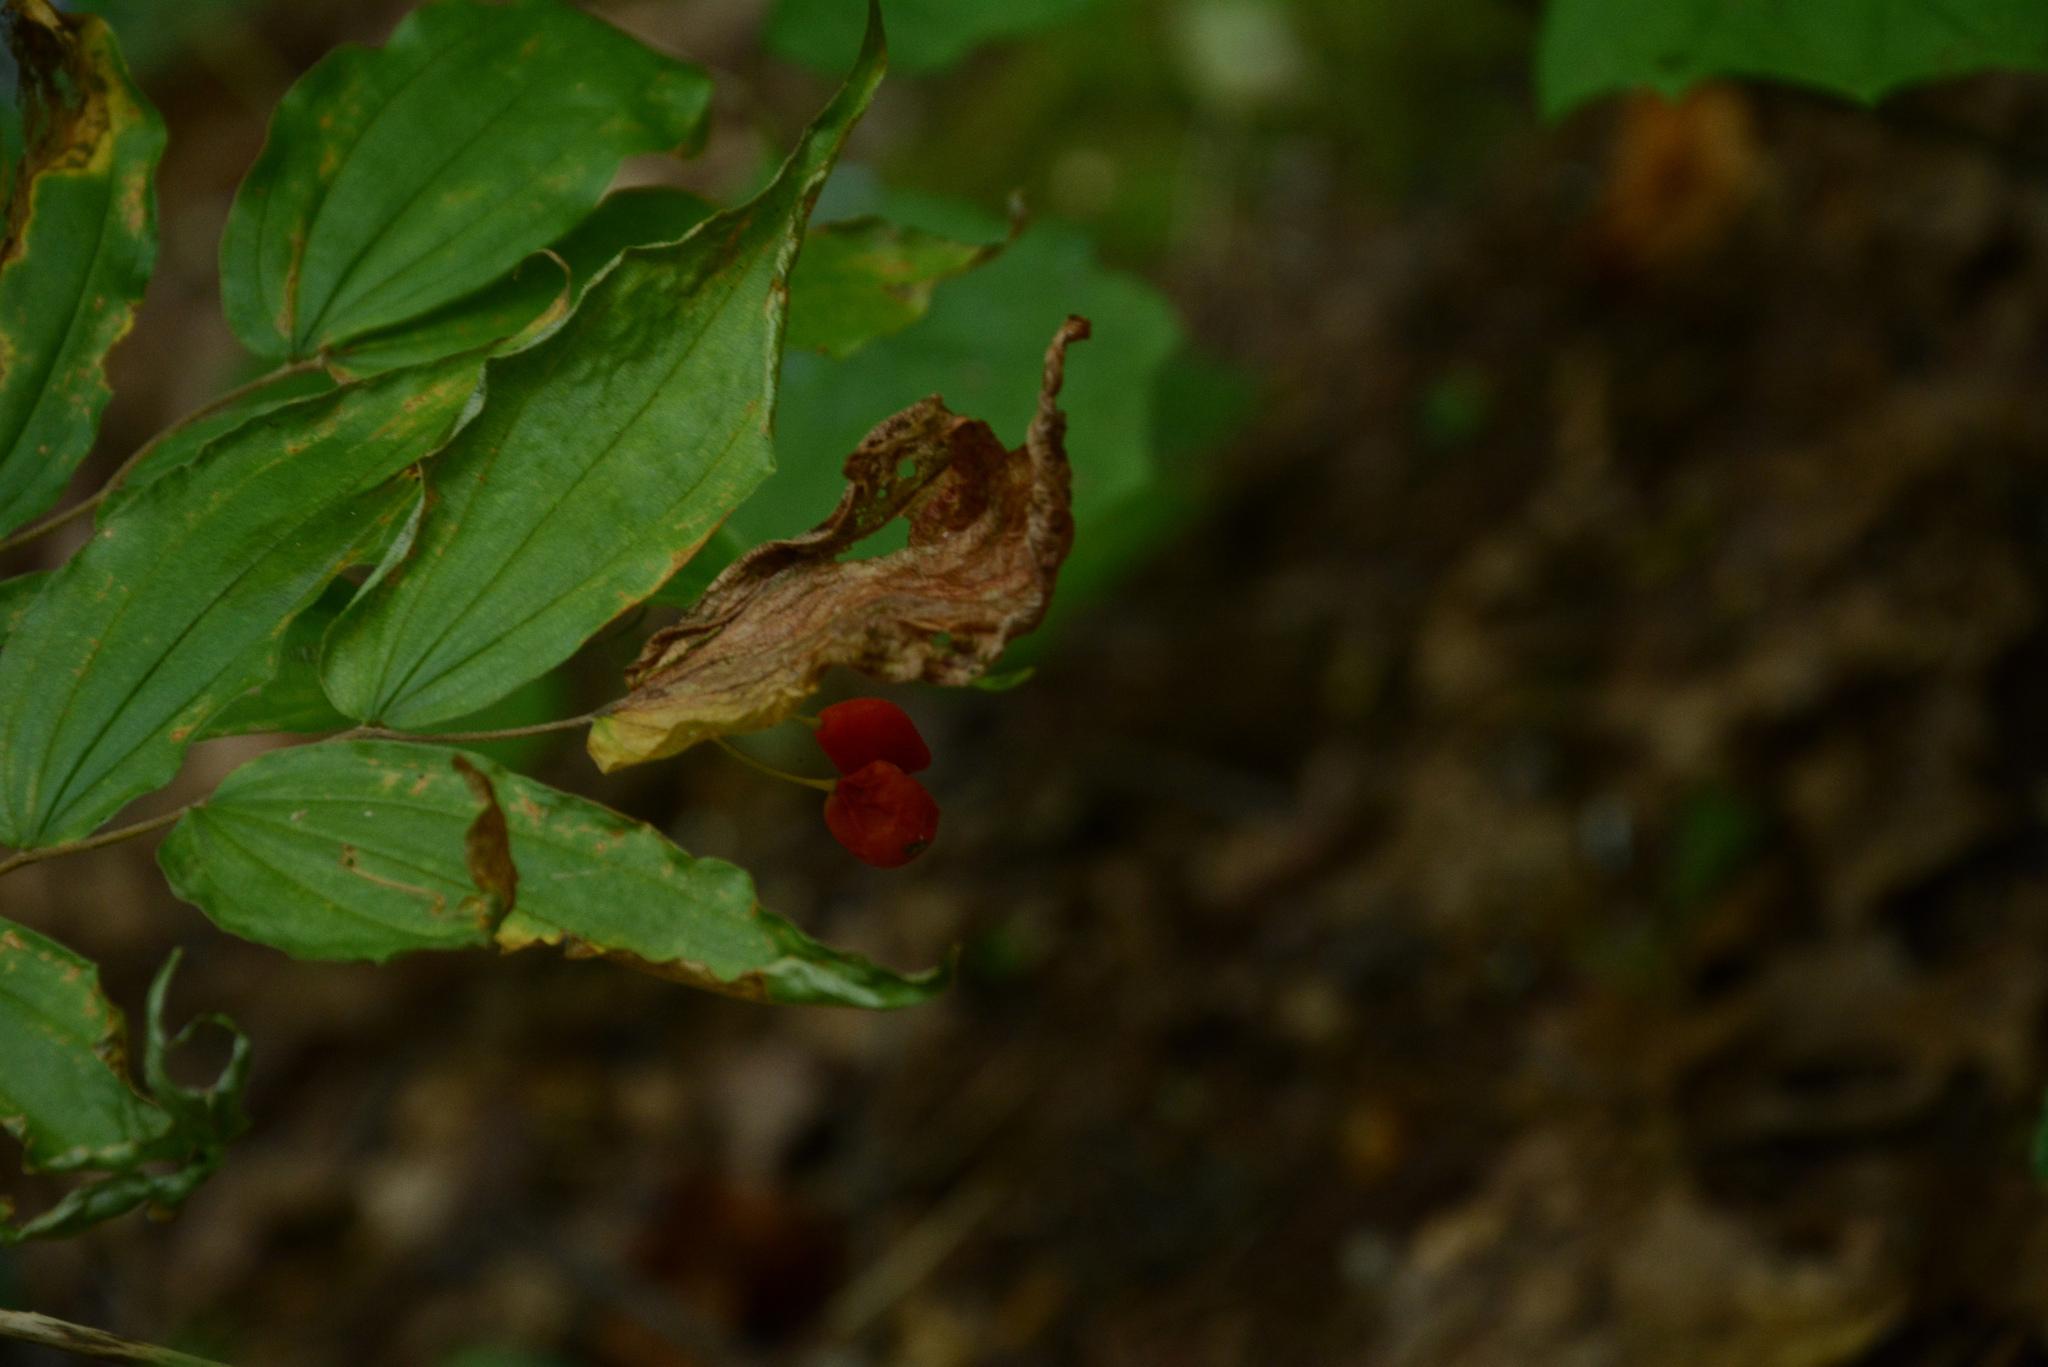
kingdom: Plantae
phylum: Tracheophyta
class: Liliopsida
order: Liliales
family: Liliaceae
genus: Prosartes
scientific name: Prosartes lanuginosa
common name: Hairy mandarin
